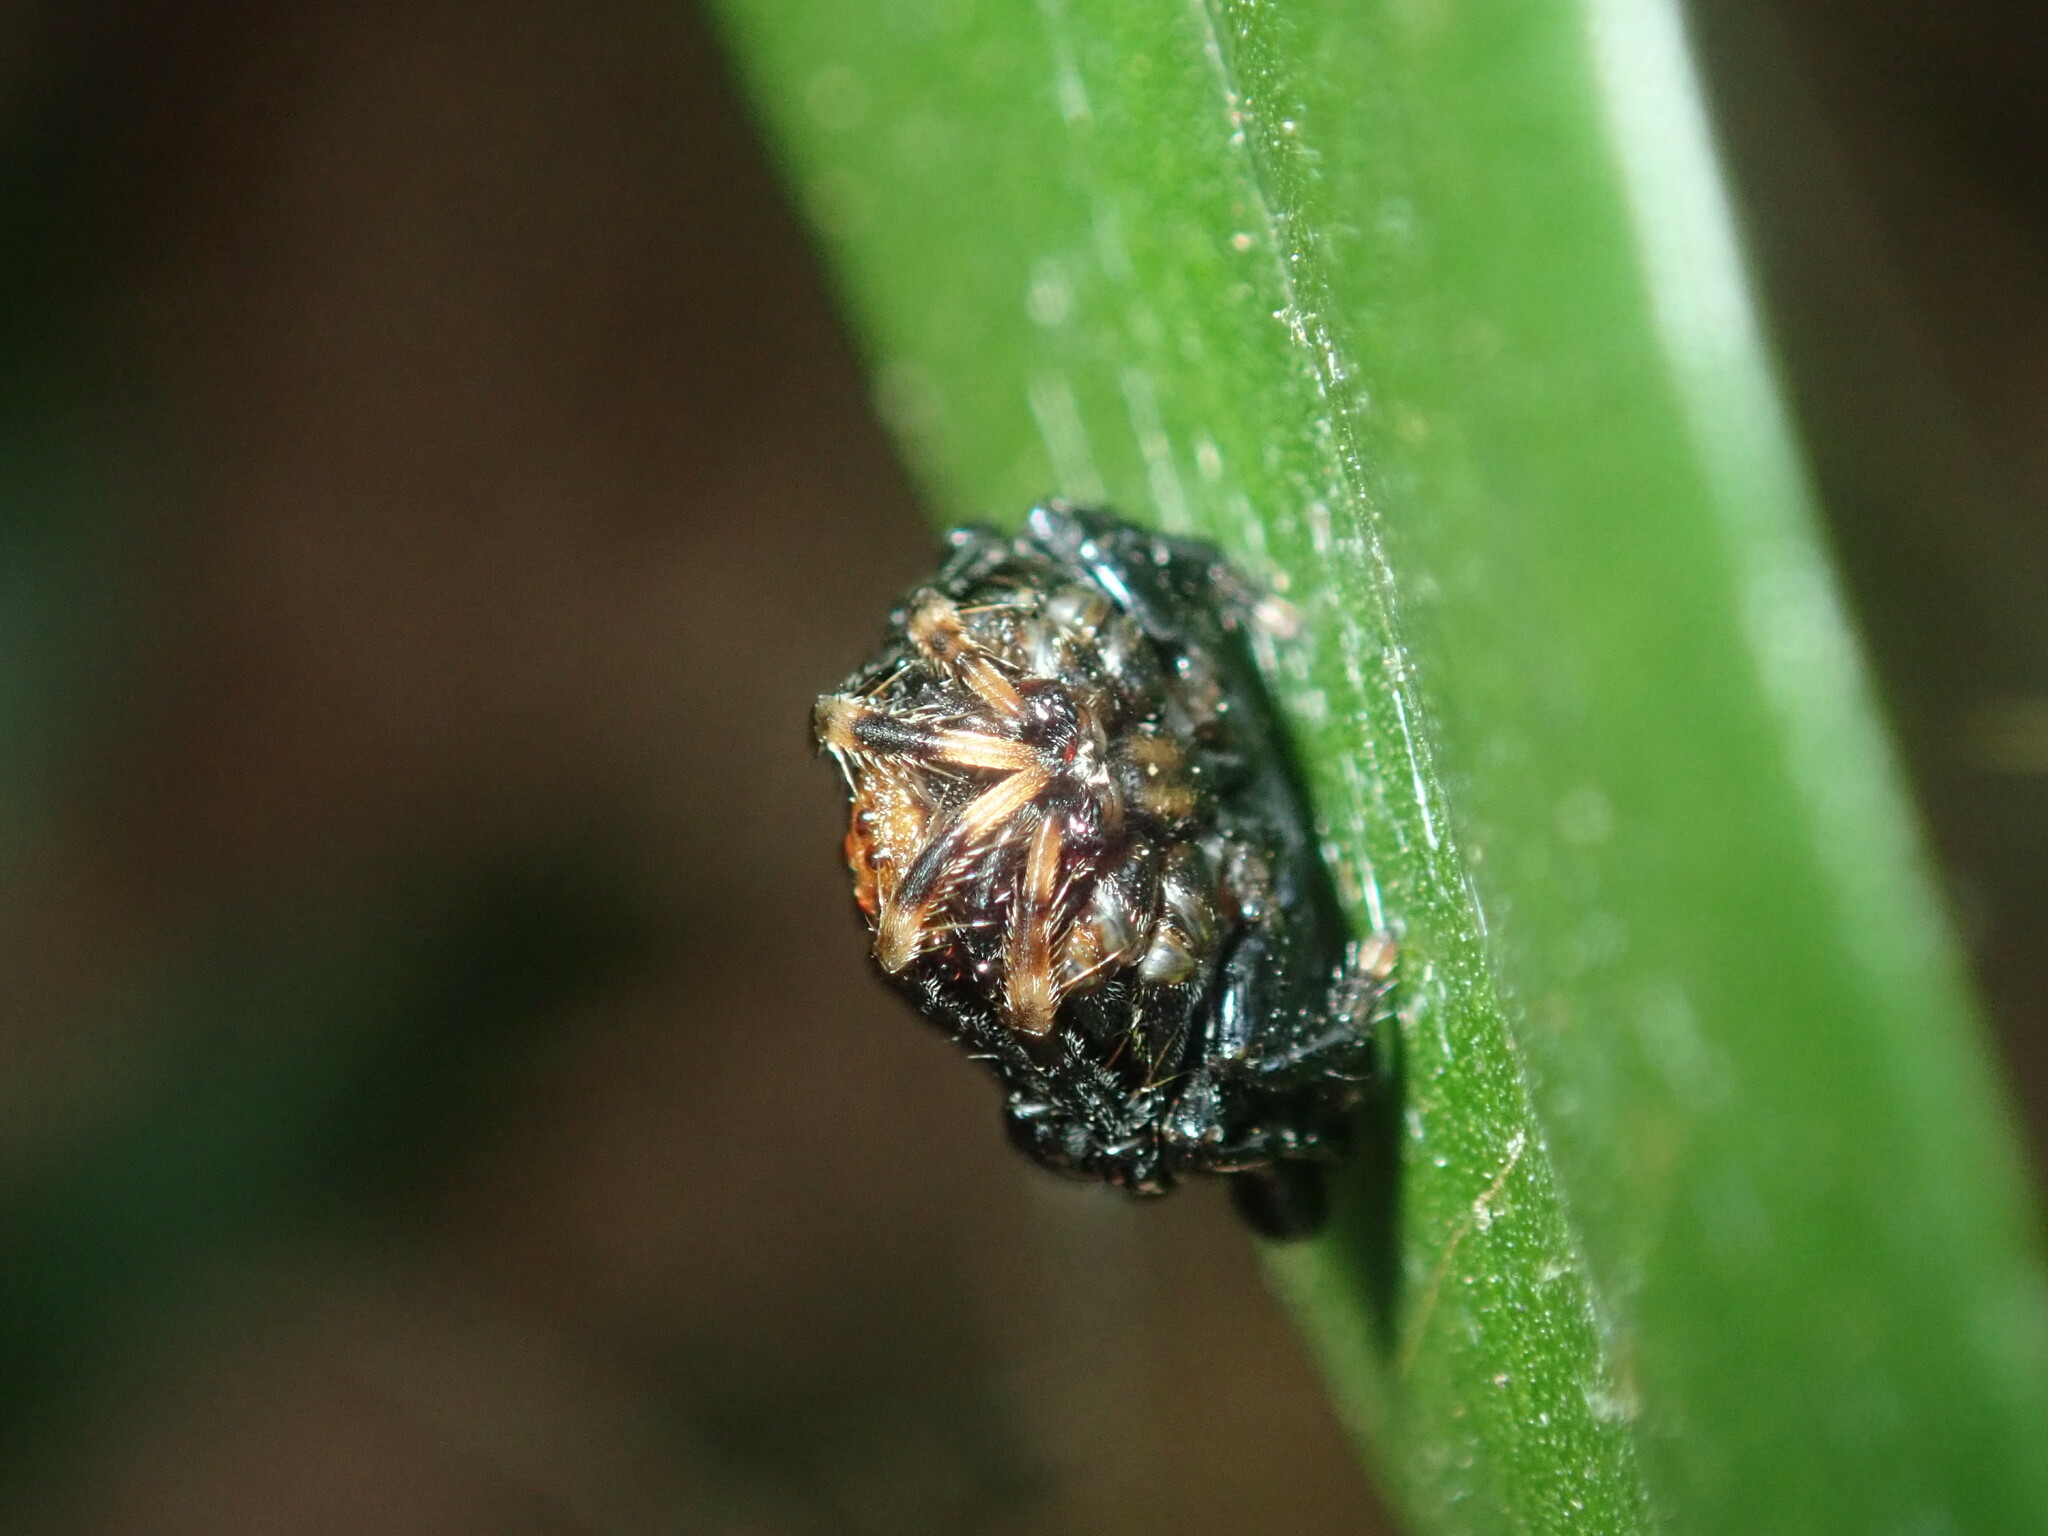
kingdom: Animalia
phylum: Arthropoda
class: Arachnida
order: Araneae
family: Arkyidae
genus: Arkys
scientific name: Arkys curtulus
